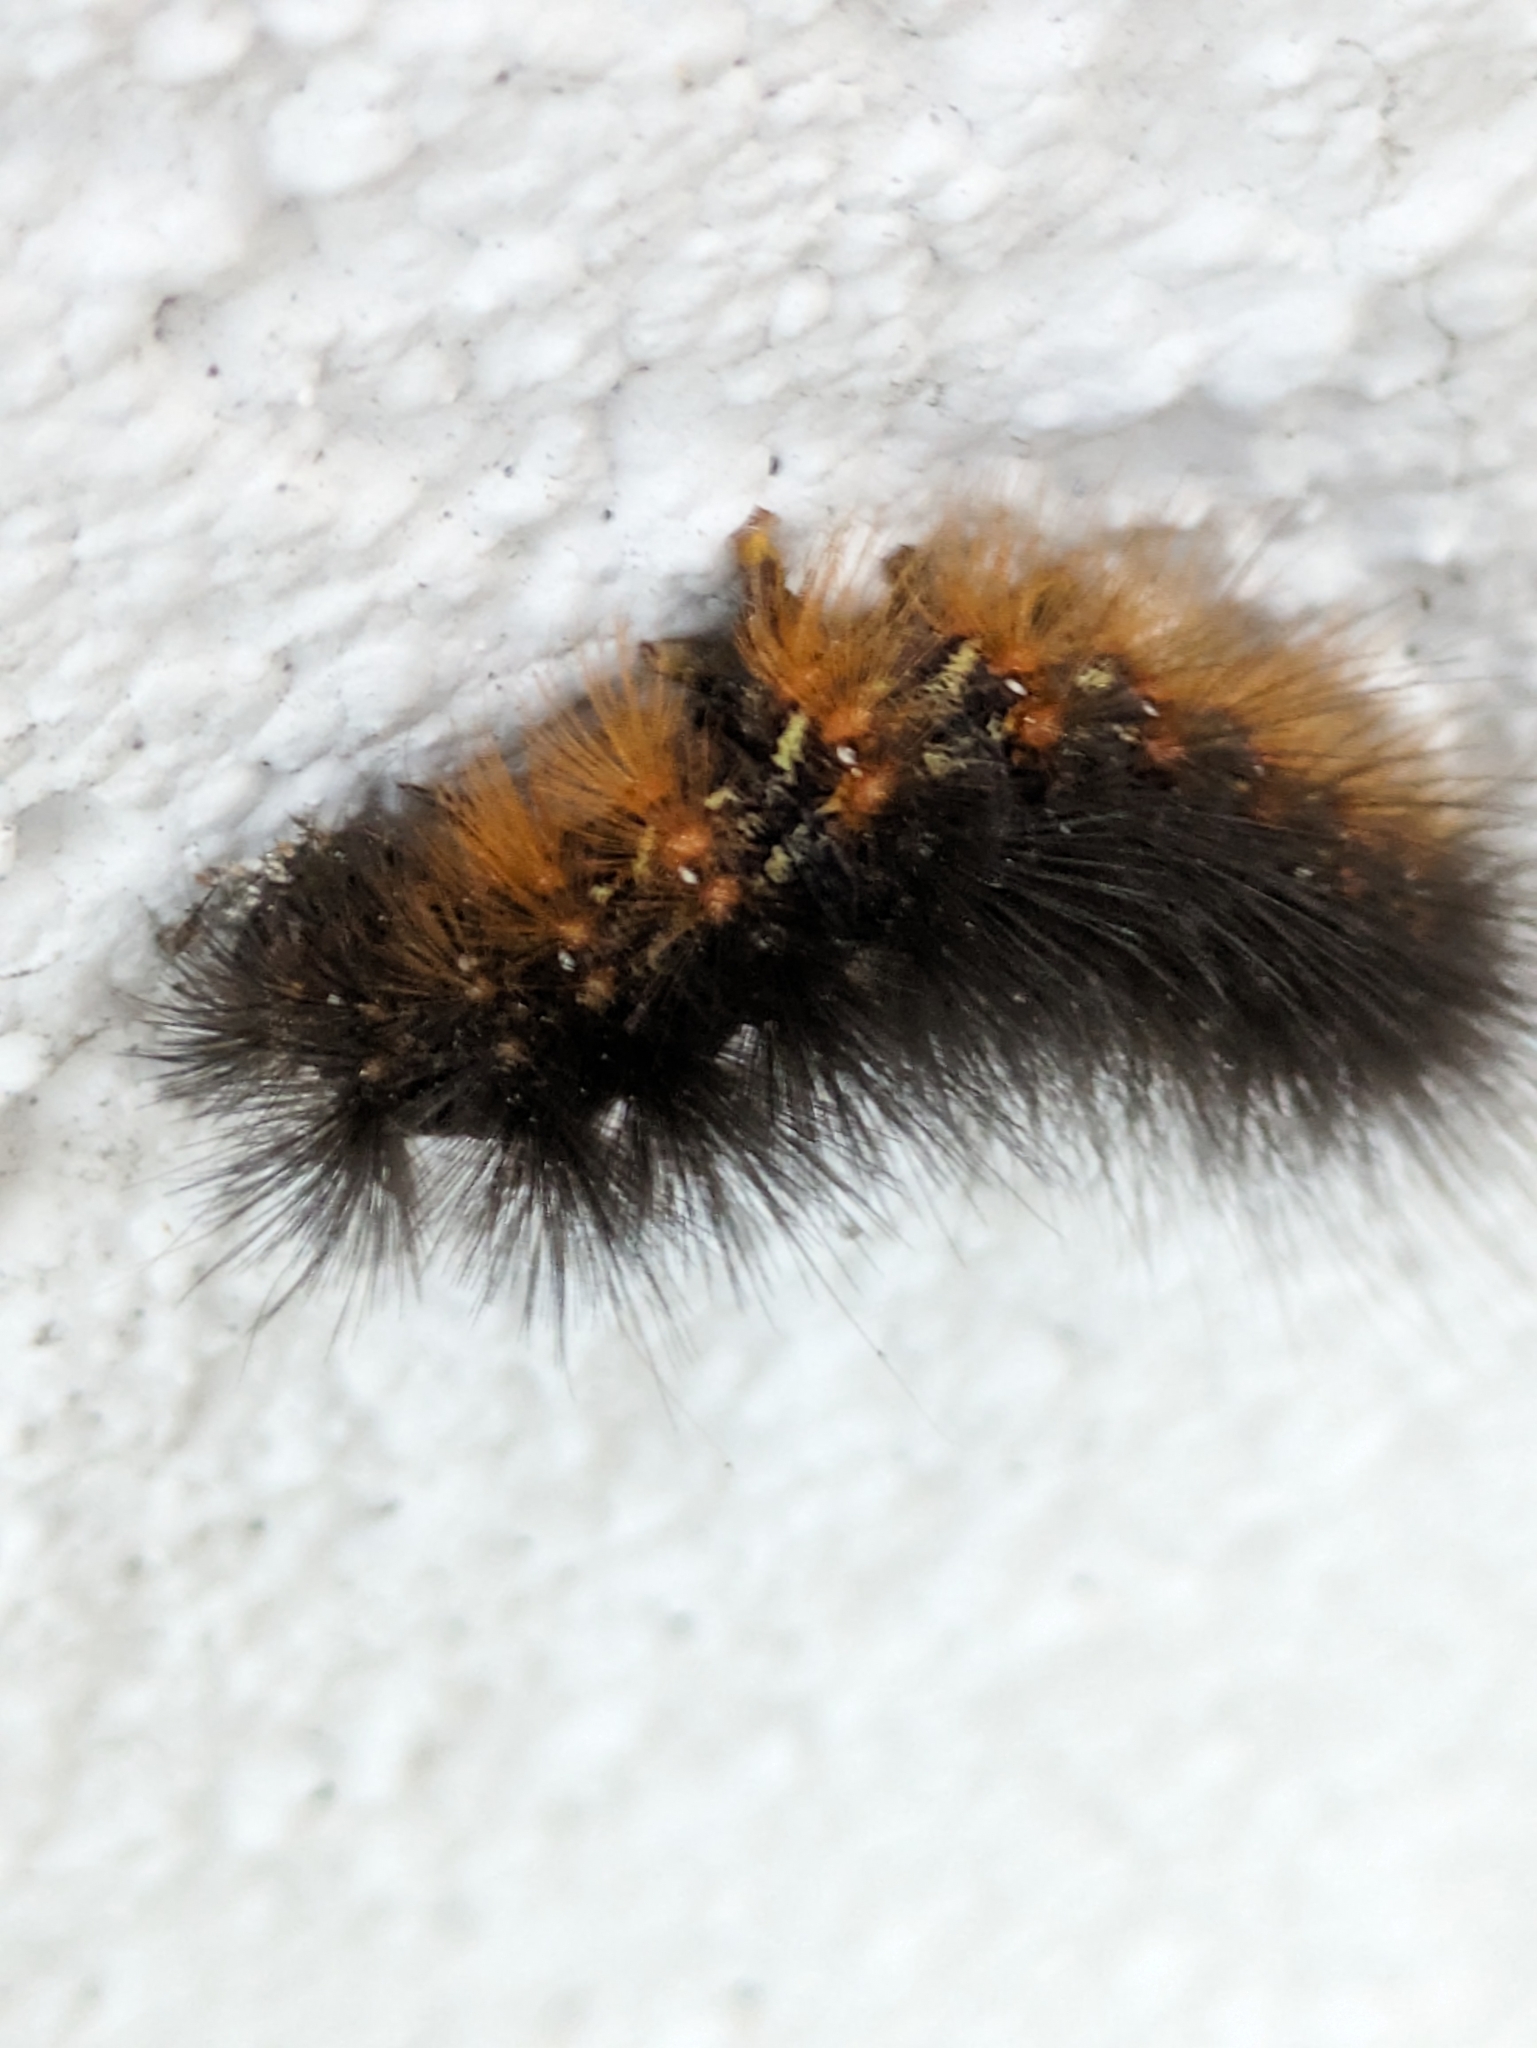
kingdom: Animalia
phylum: Arthropoda
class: Insecta
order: Lepidoptera
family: Erebidae
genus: Estigmene
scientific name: Estigmene acrea
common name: Salt marsh moth
